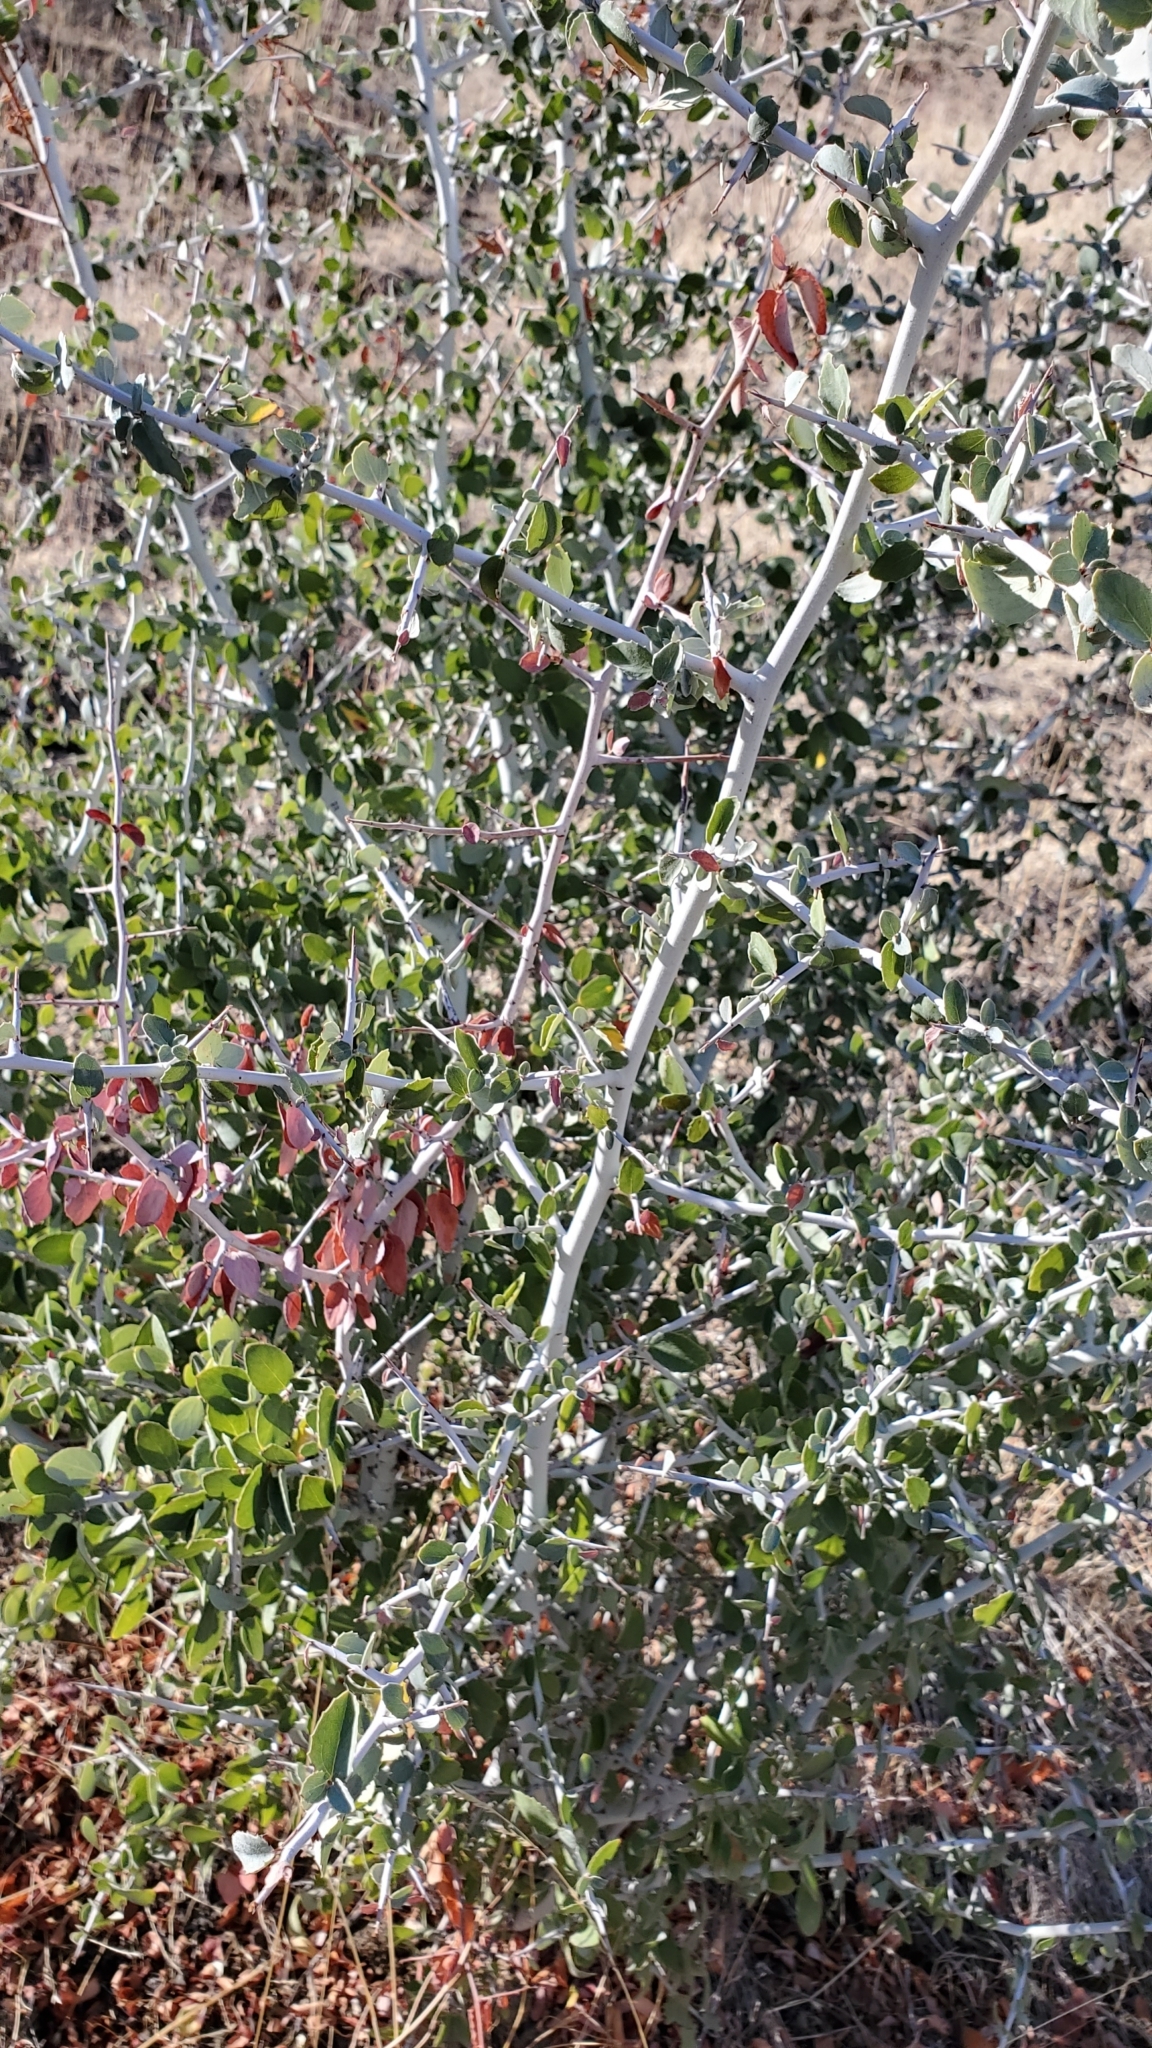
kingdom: Plantae
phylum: Tracheophyta
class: Magnoliopsida
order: Rosales
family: Rhamnaceae
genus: Ceanothus
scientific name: Ceanothus leucodermis
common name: Chaparral whitethorn
